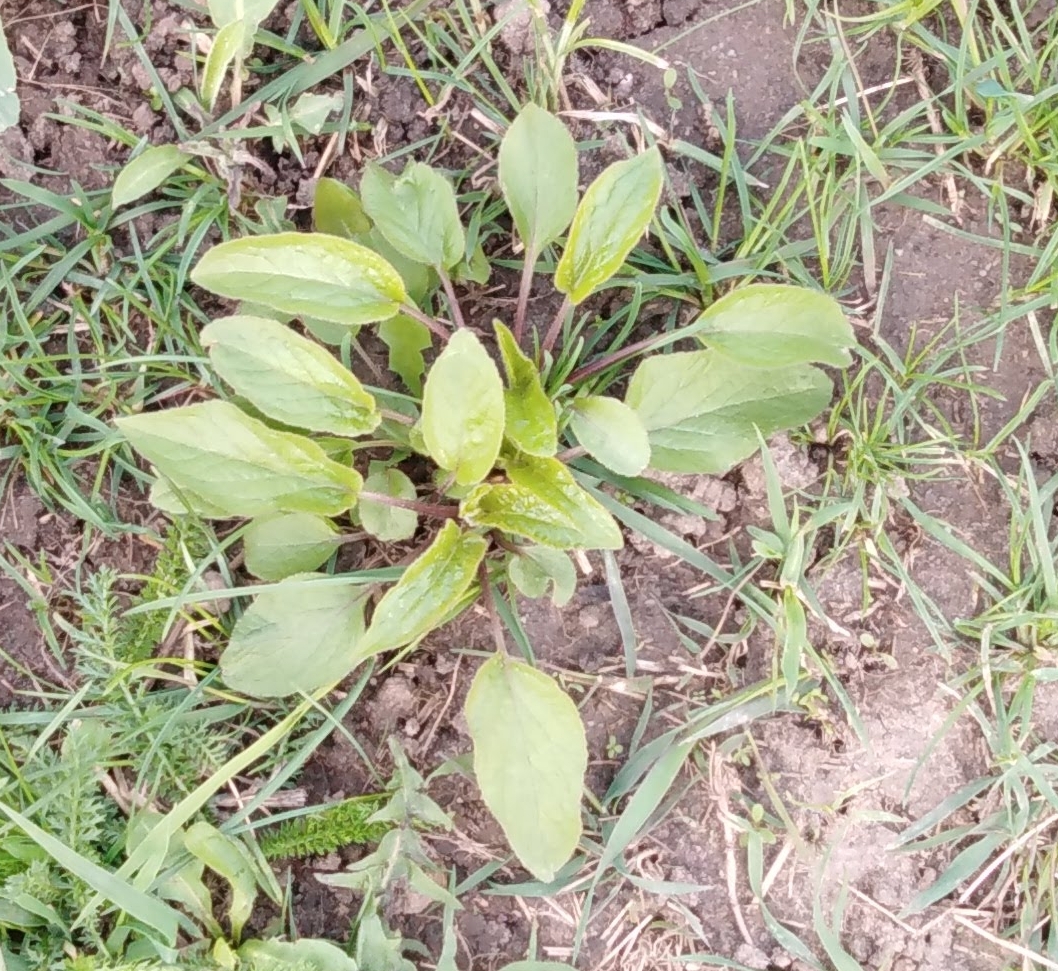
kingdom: Plantae
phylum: Tracheophyta
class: Magnoliopsida
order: Asterales
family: Campanulaceae
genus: Campanula
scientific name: Campanula rapunculoides
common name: Creeping bellflower
